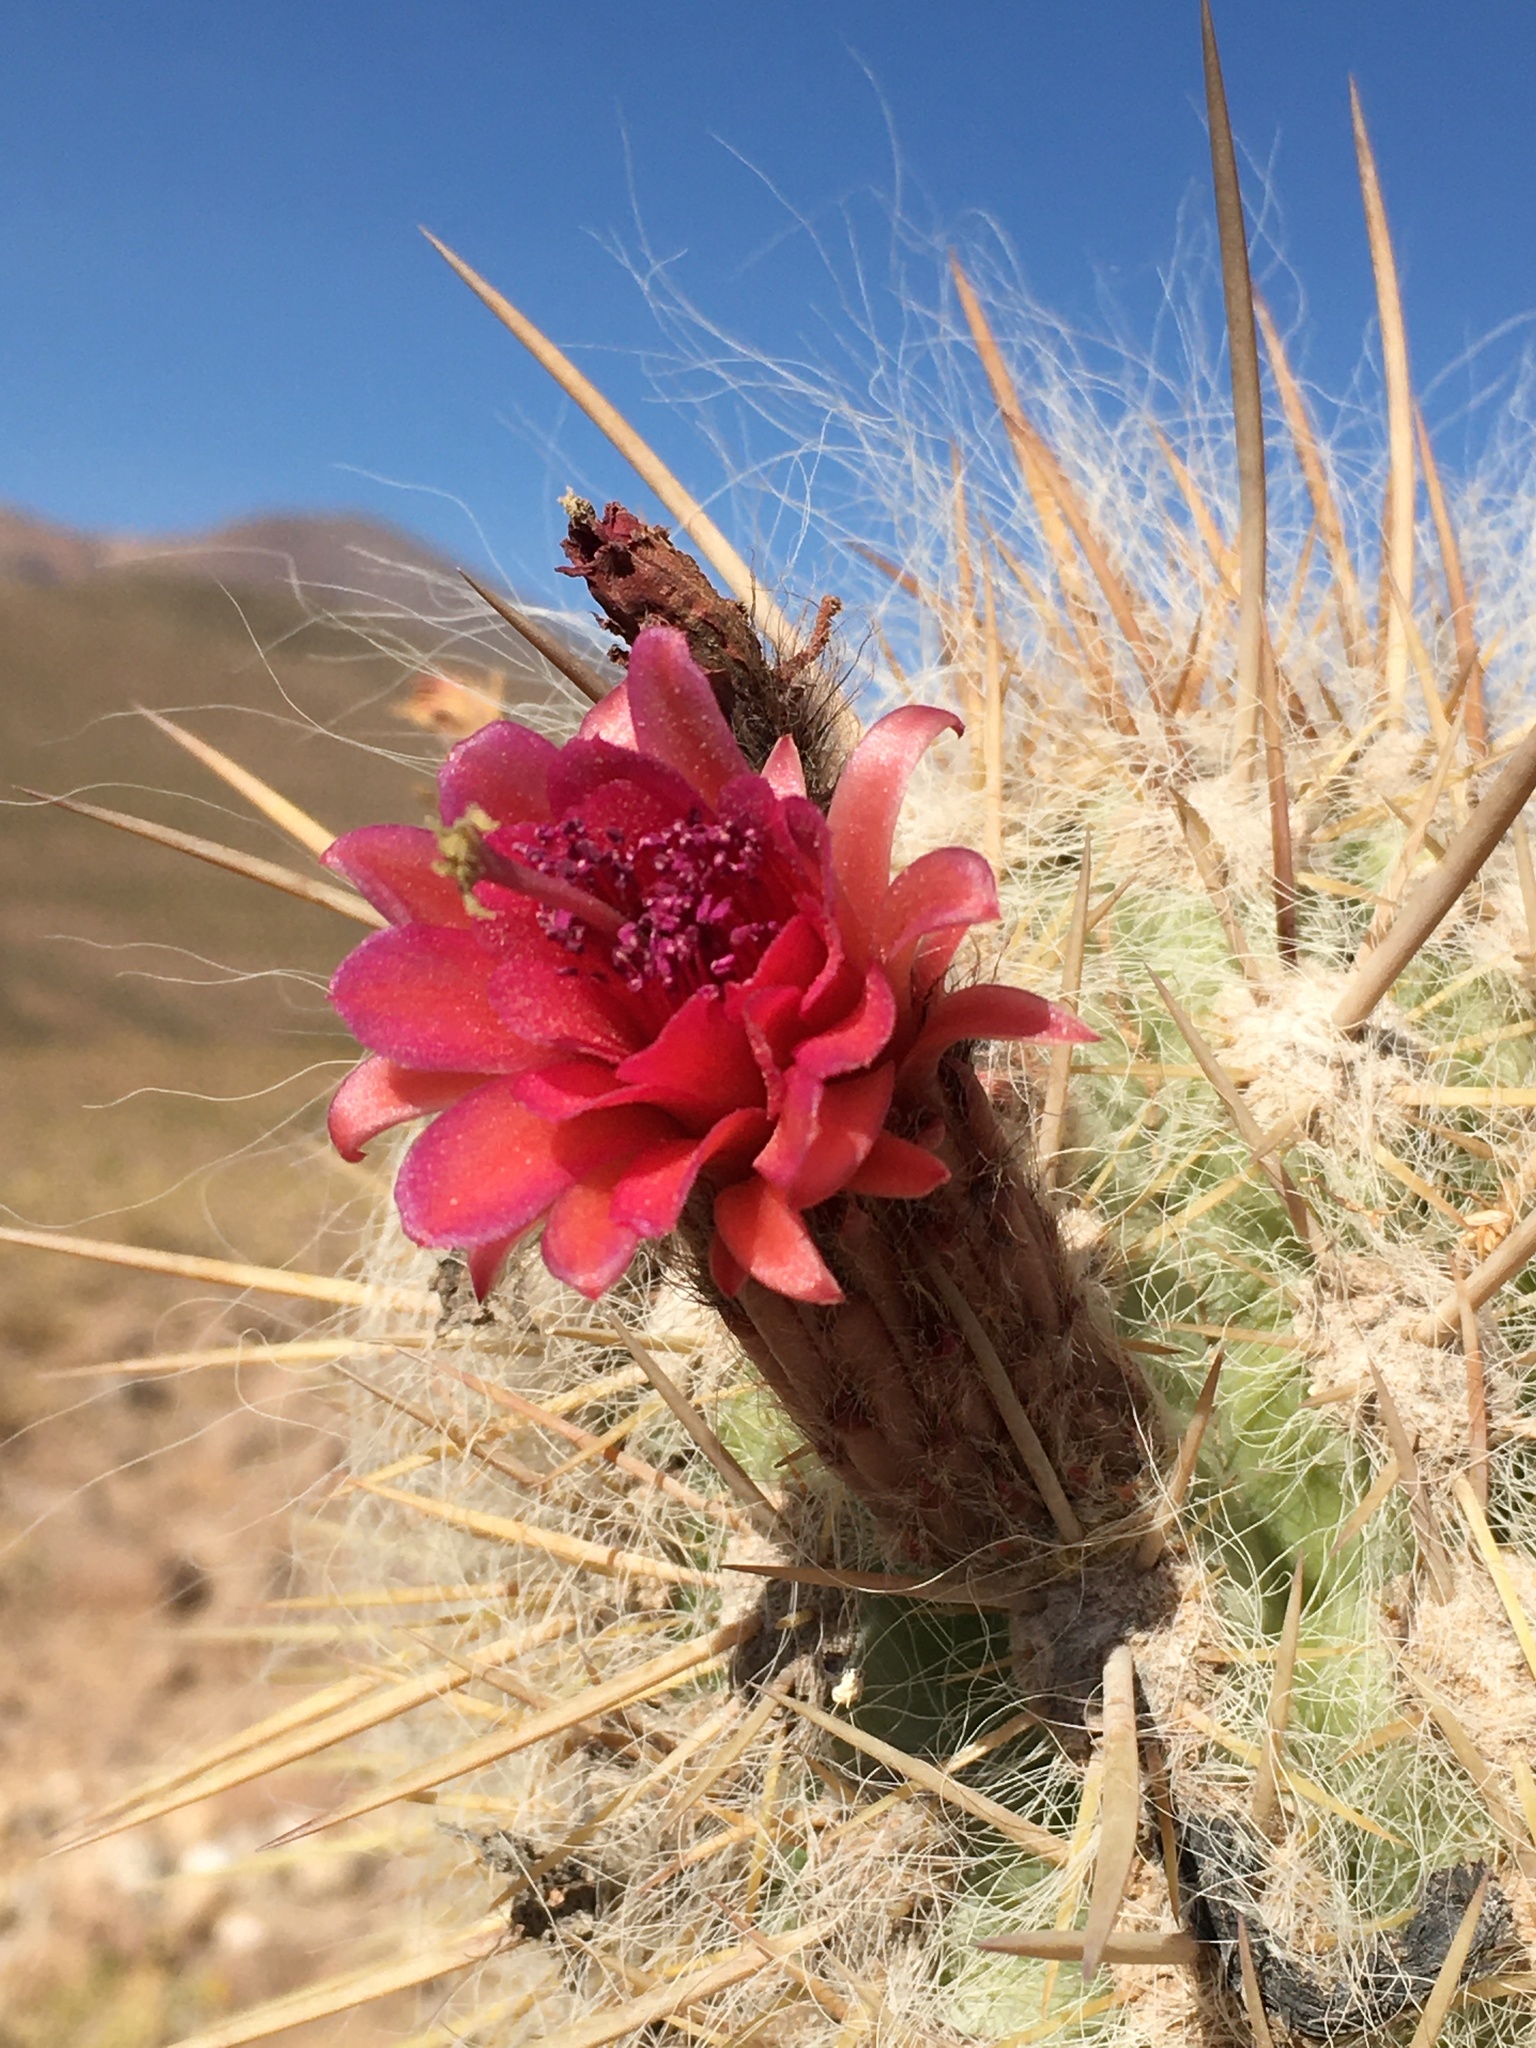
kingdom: Plantae
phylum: Tracheophyta
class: Magnoliopsida
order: Caryophyllales
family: Cactaceae
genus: Oreocereus
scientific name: Oreocereus leucotrichus
